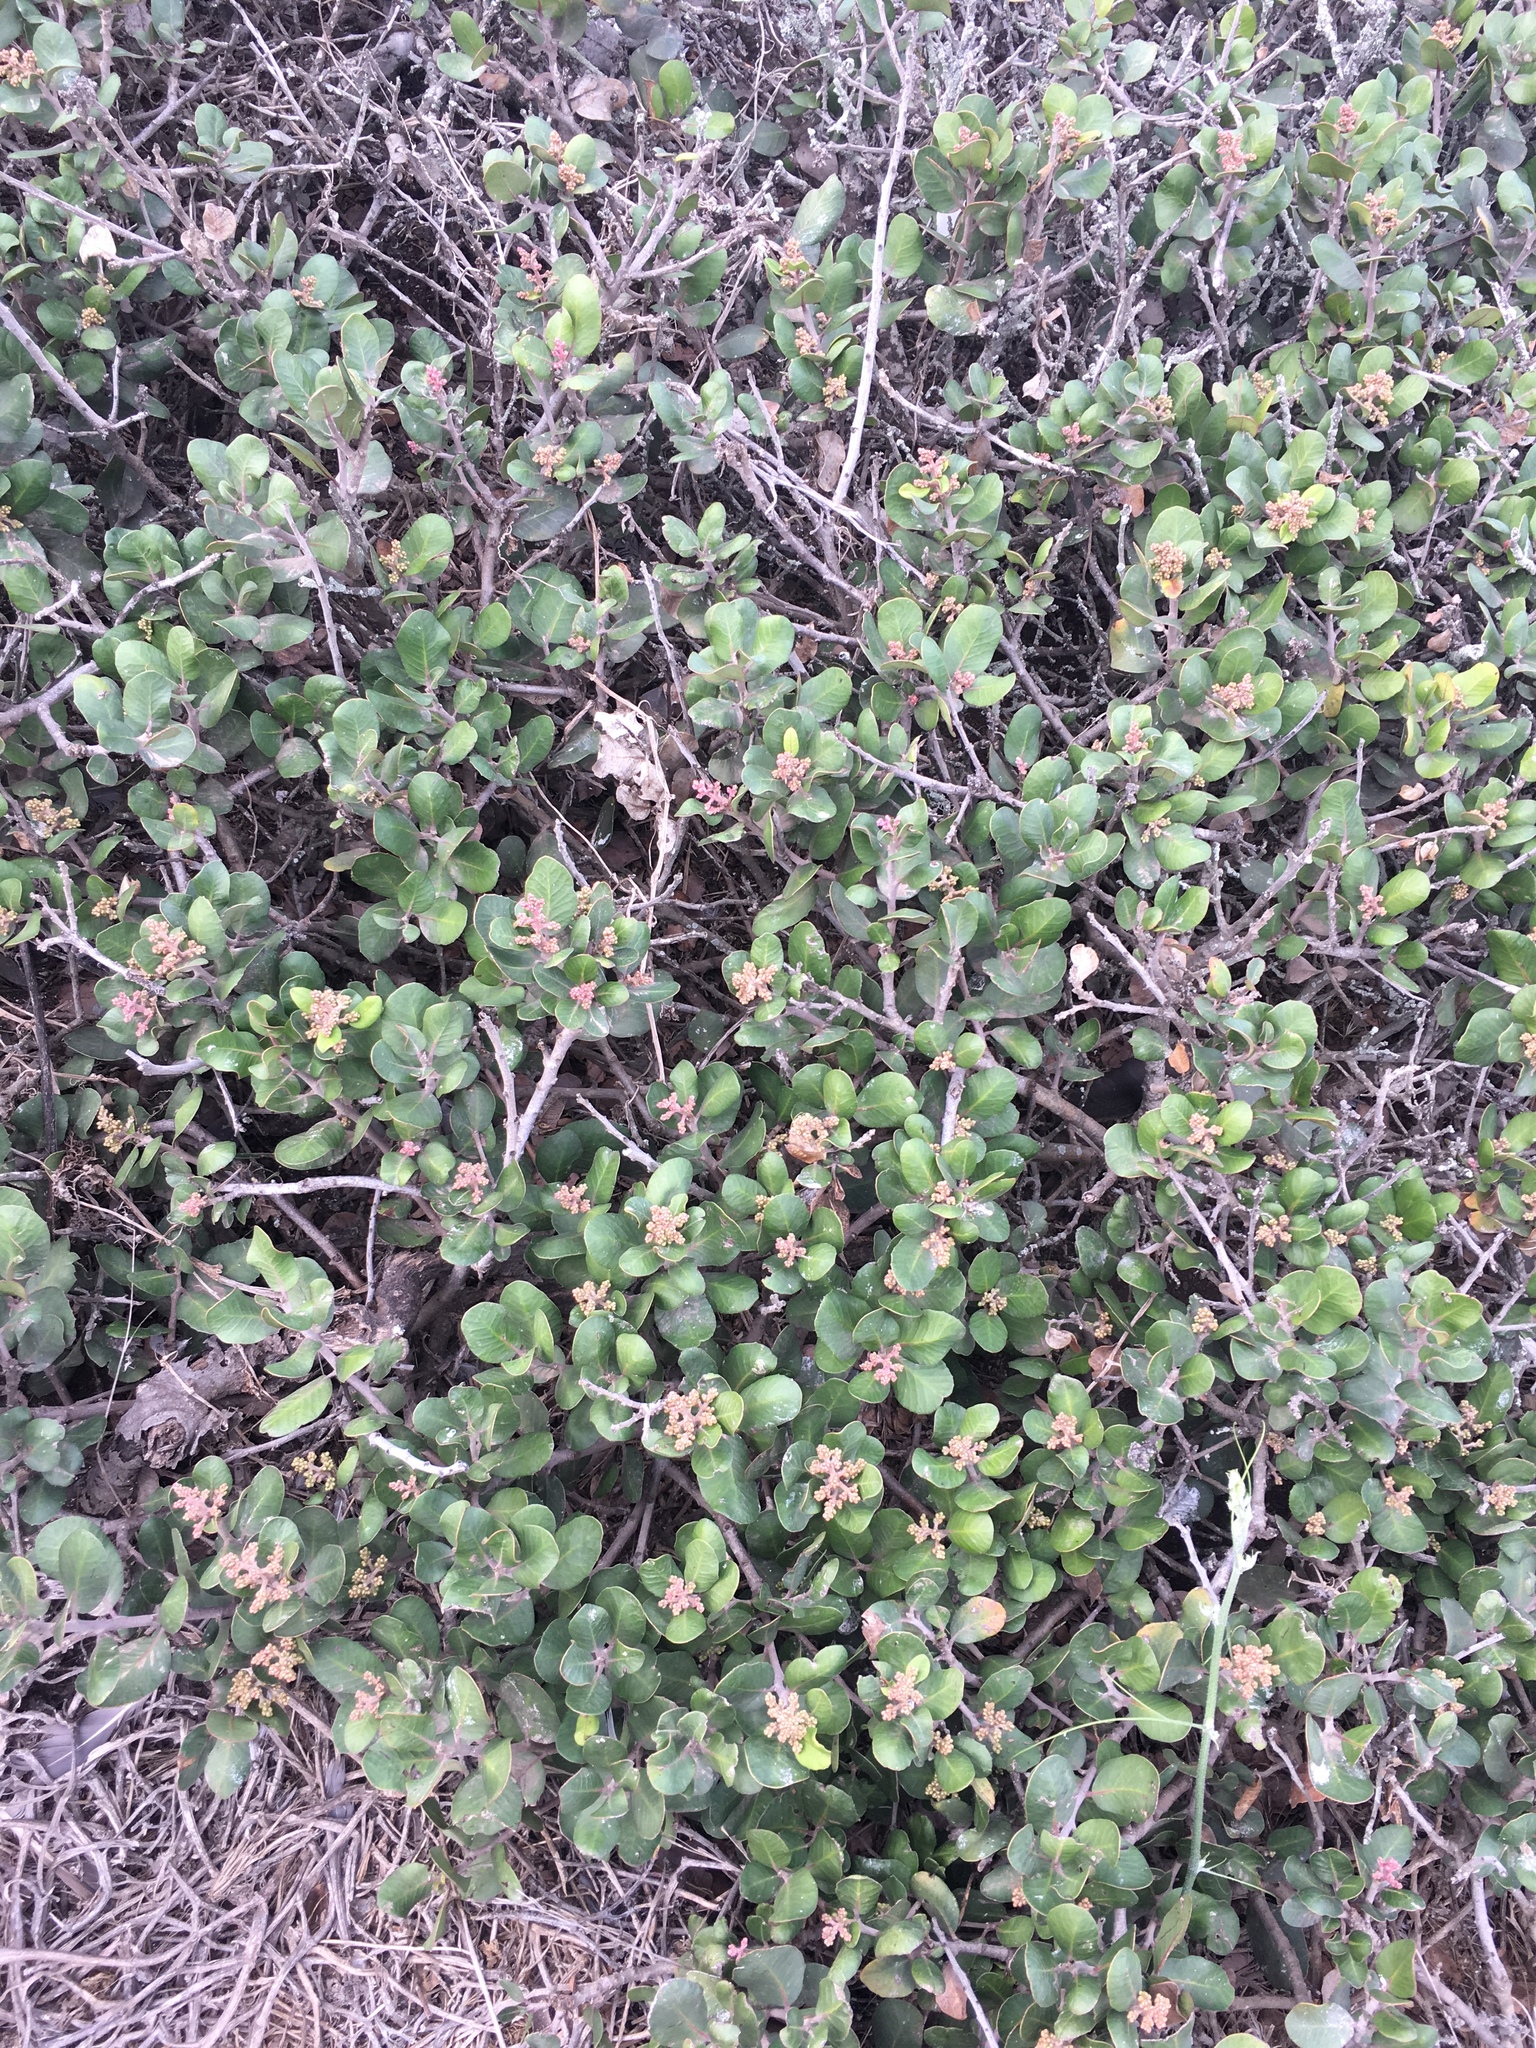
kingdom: Plantae
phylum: Tracheophyta
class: Magnoliopsida
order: Sapindales
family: Anacardiaceae
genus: Rhus
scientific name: Rhus integrifolia
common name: Lemonade sumac
